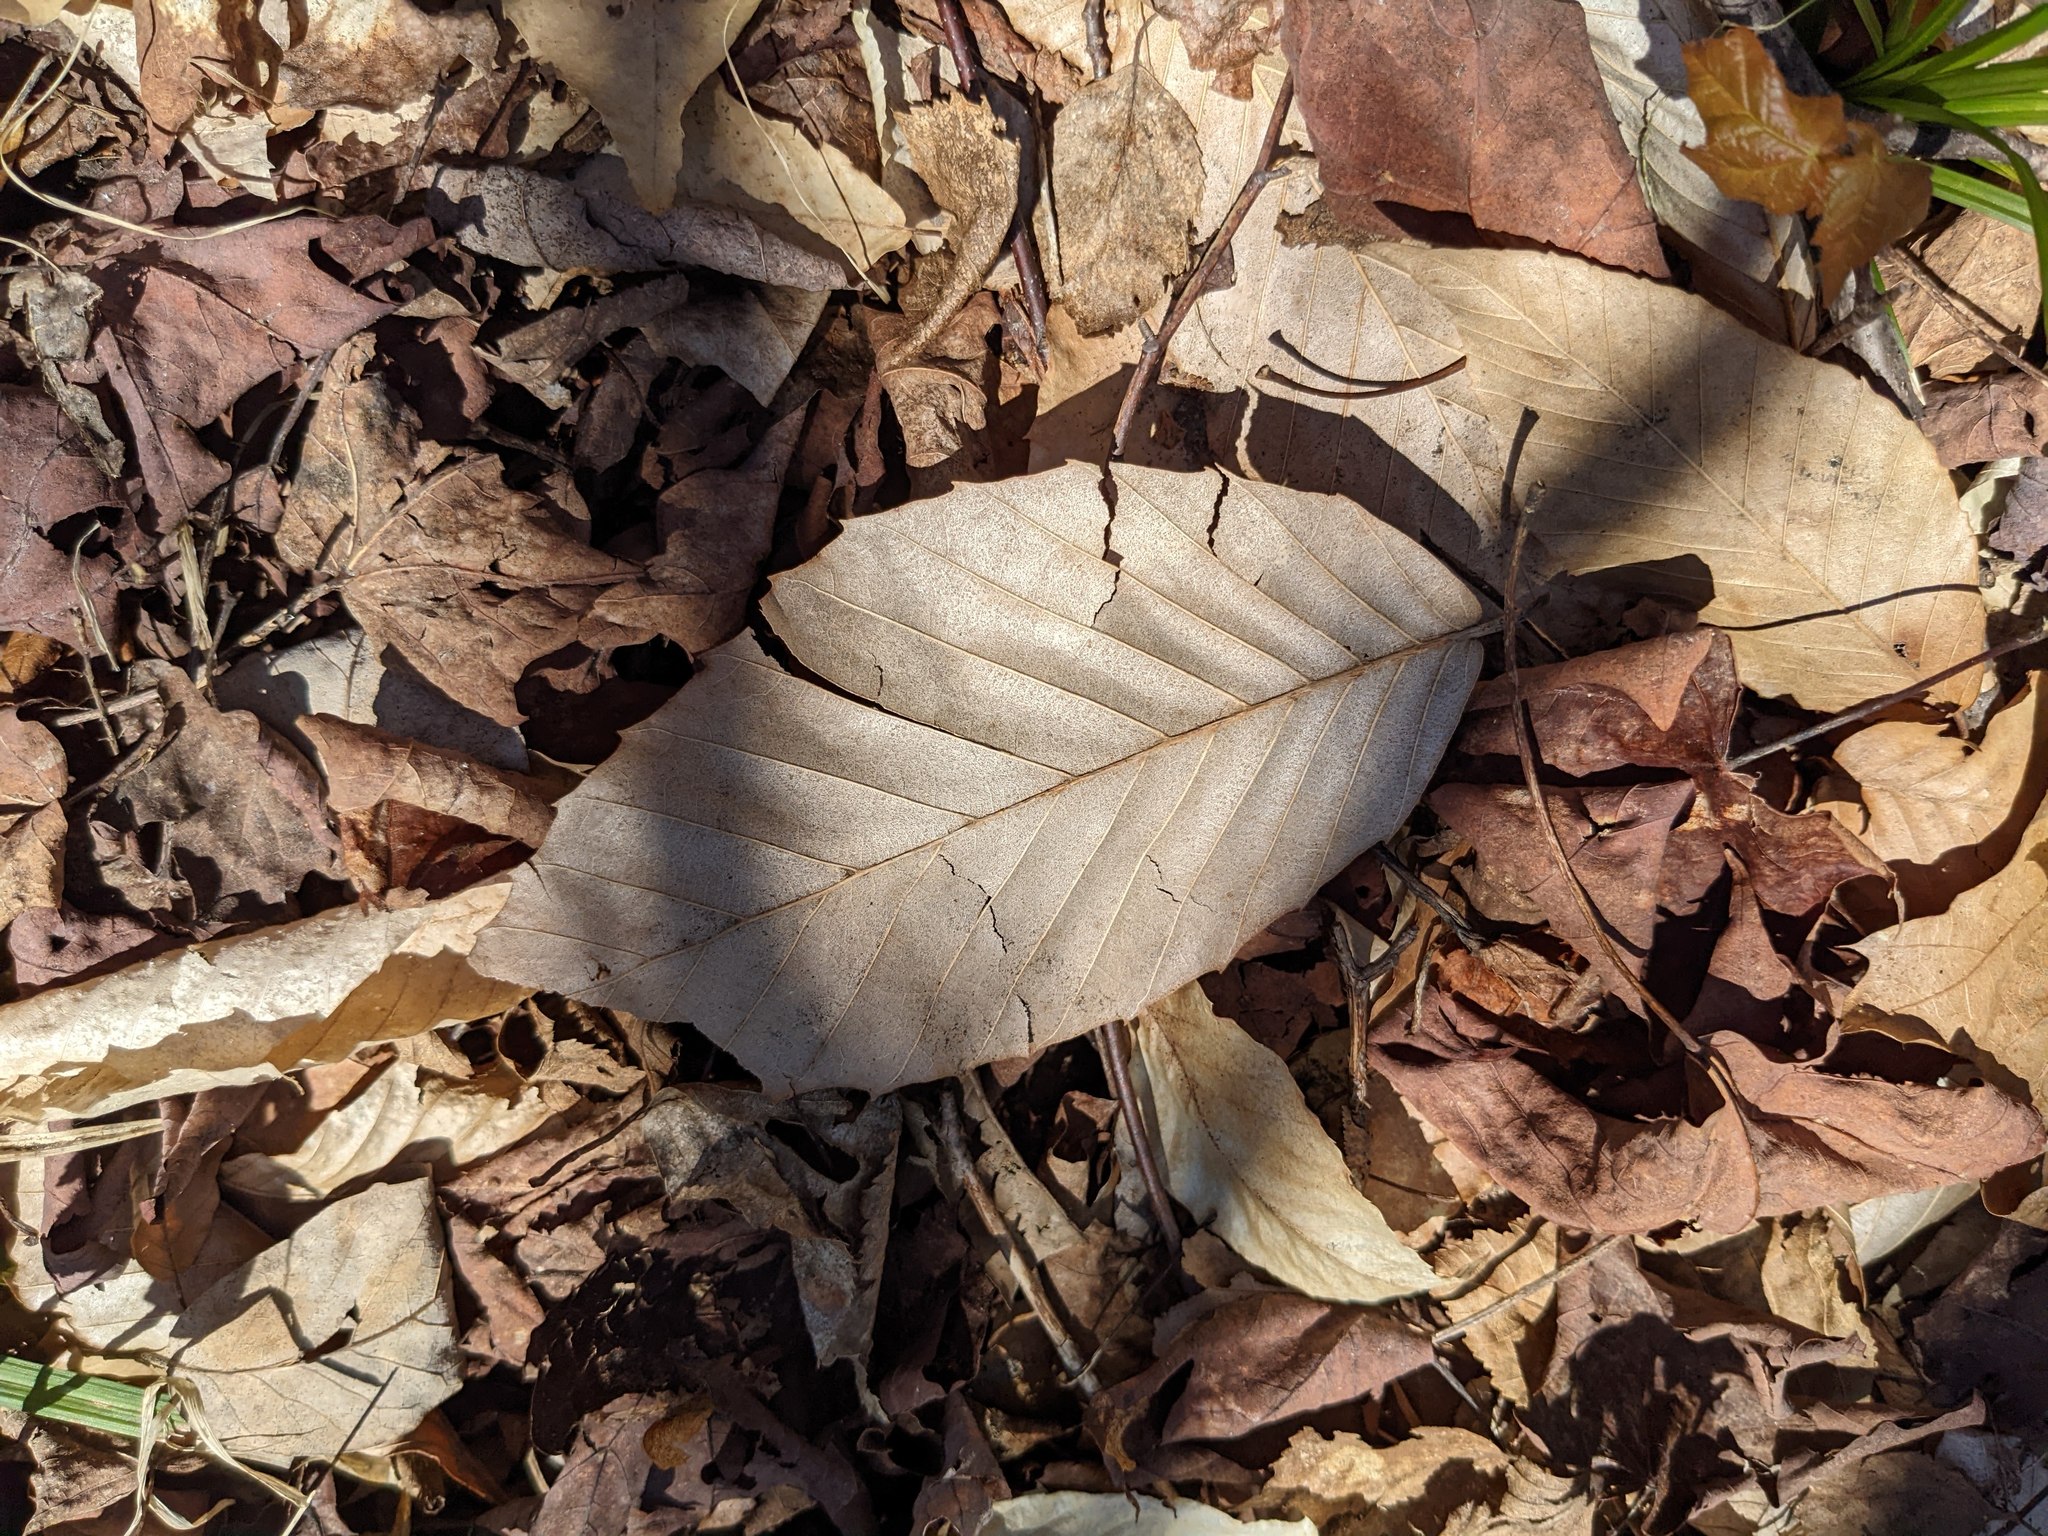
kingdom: Plantae
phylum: Tracheophyta
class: Magnoliopsida
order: Fagales
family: Fagaceae
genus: Fagus
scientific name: Fagus grandifolia
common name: American beech
